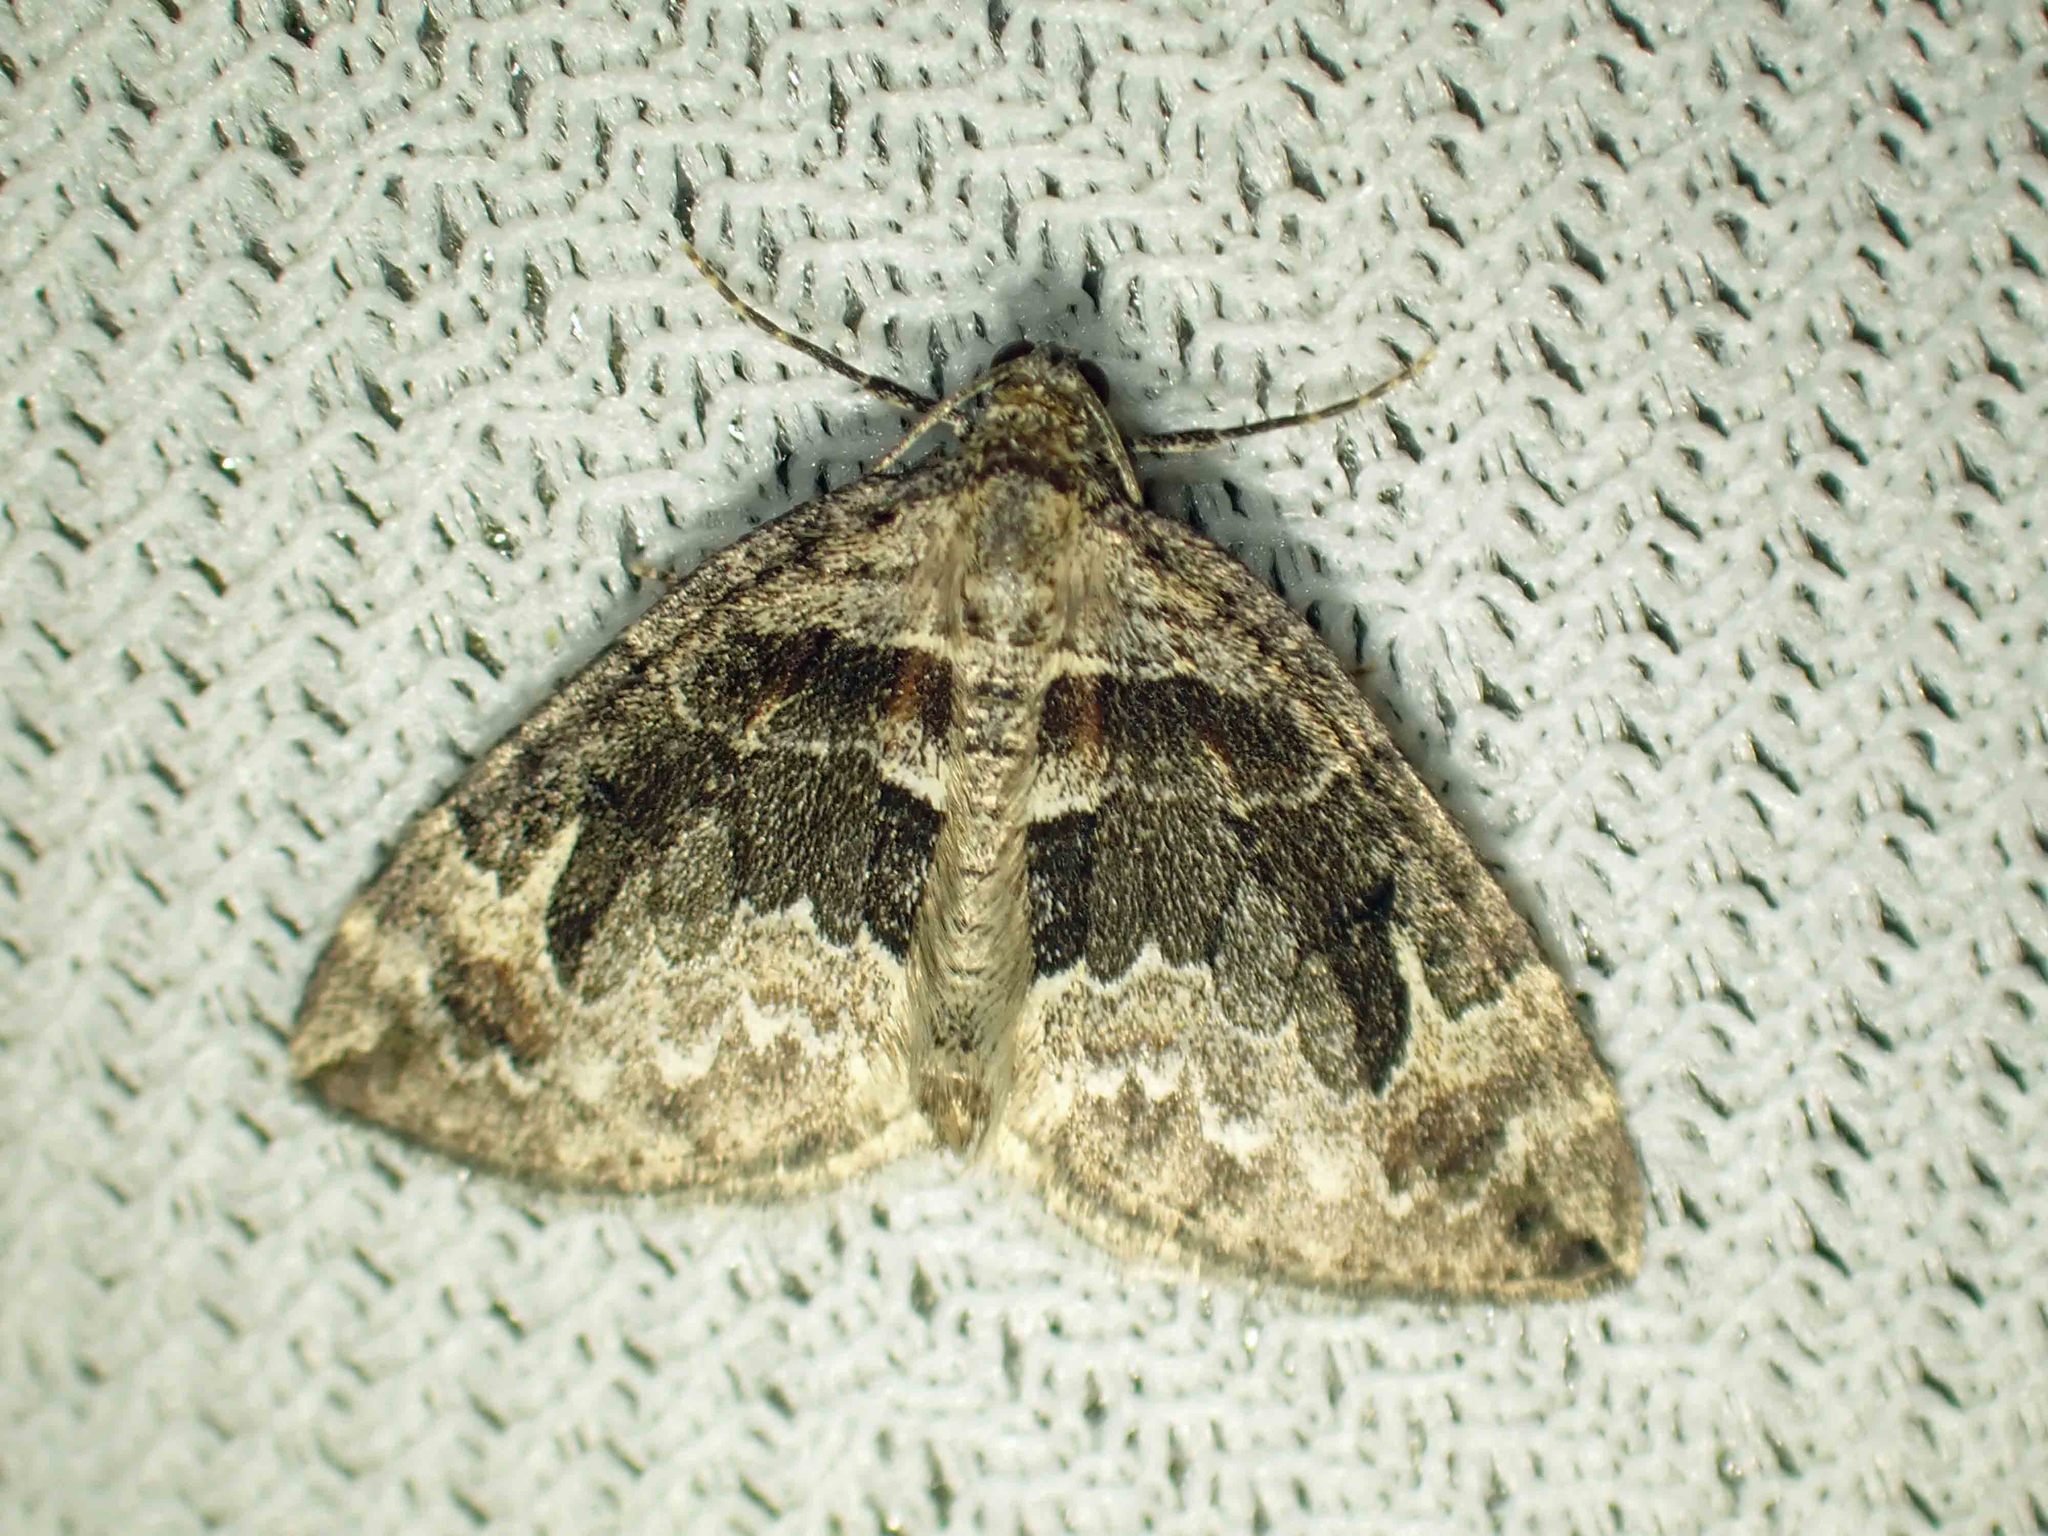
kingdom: Animalia
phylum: Arthropoda
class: Insecta
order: Lepidoptera
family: Geometridae
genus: Dysstroma
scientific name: Dysstroma hersiliata
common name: Orange-barred carpet
